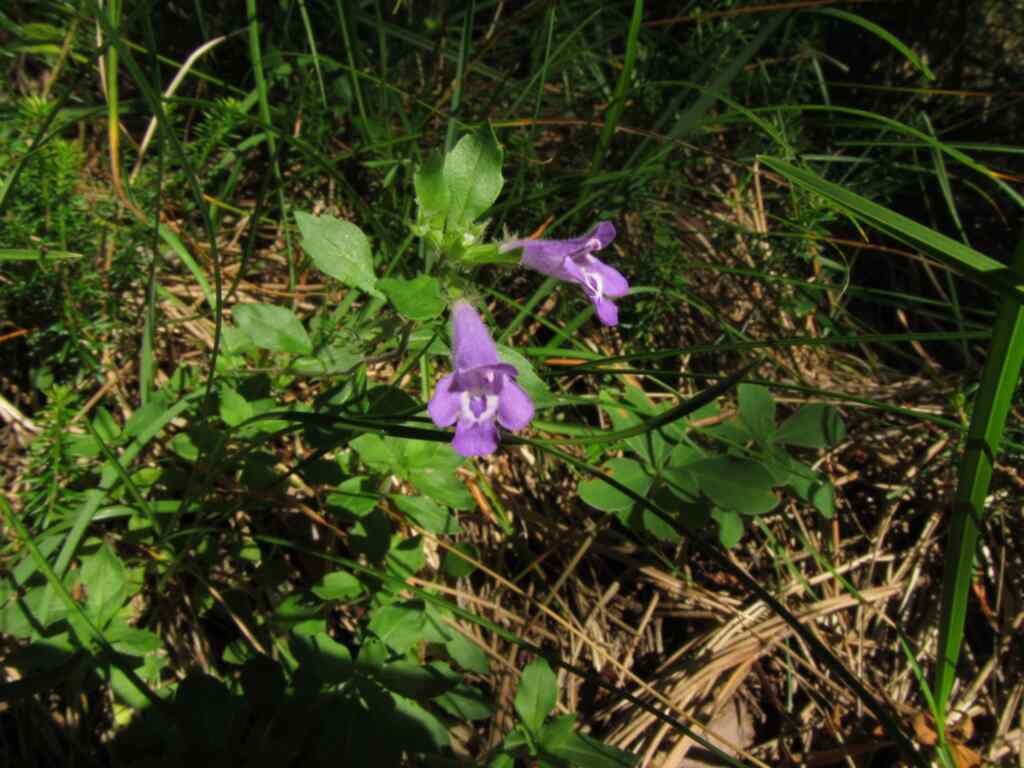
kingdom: Plantae
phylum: Tracheophyta
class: Magnoliopsida
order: Lamiales
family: Lamiaceae
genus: Clinopodium
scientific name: Clinopodium alpinum
